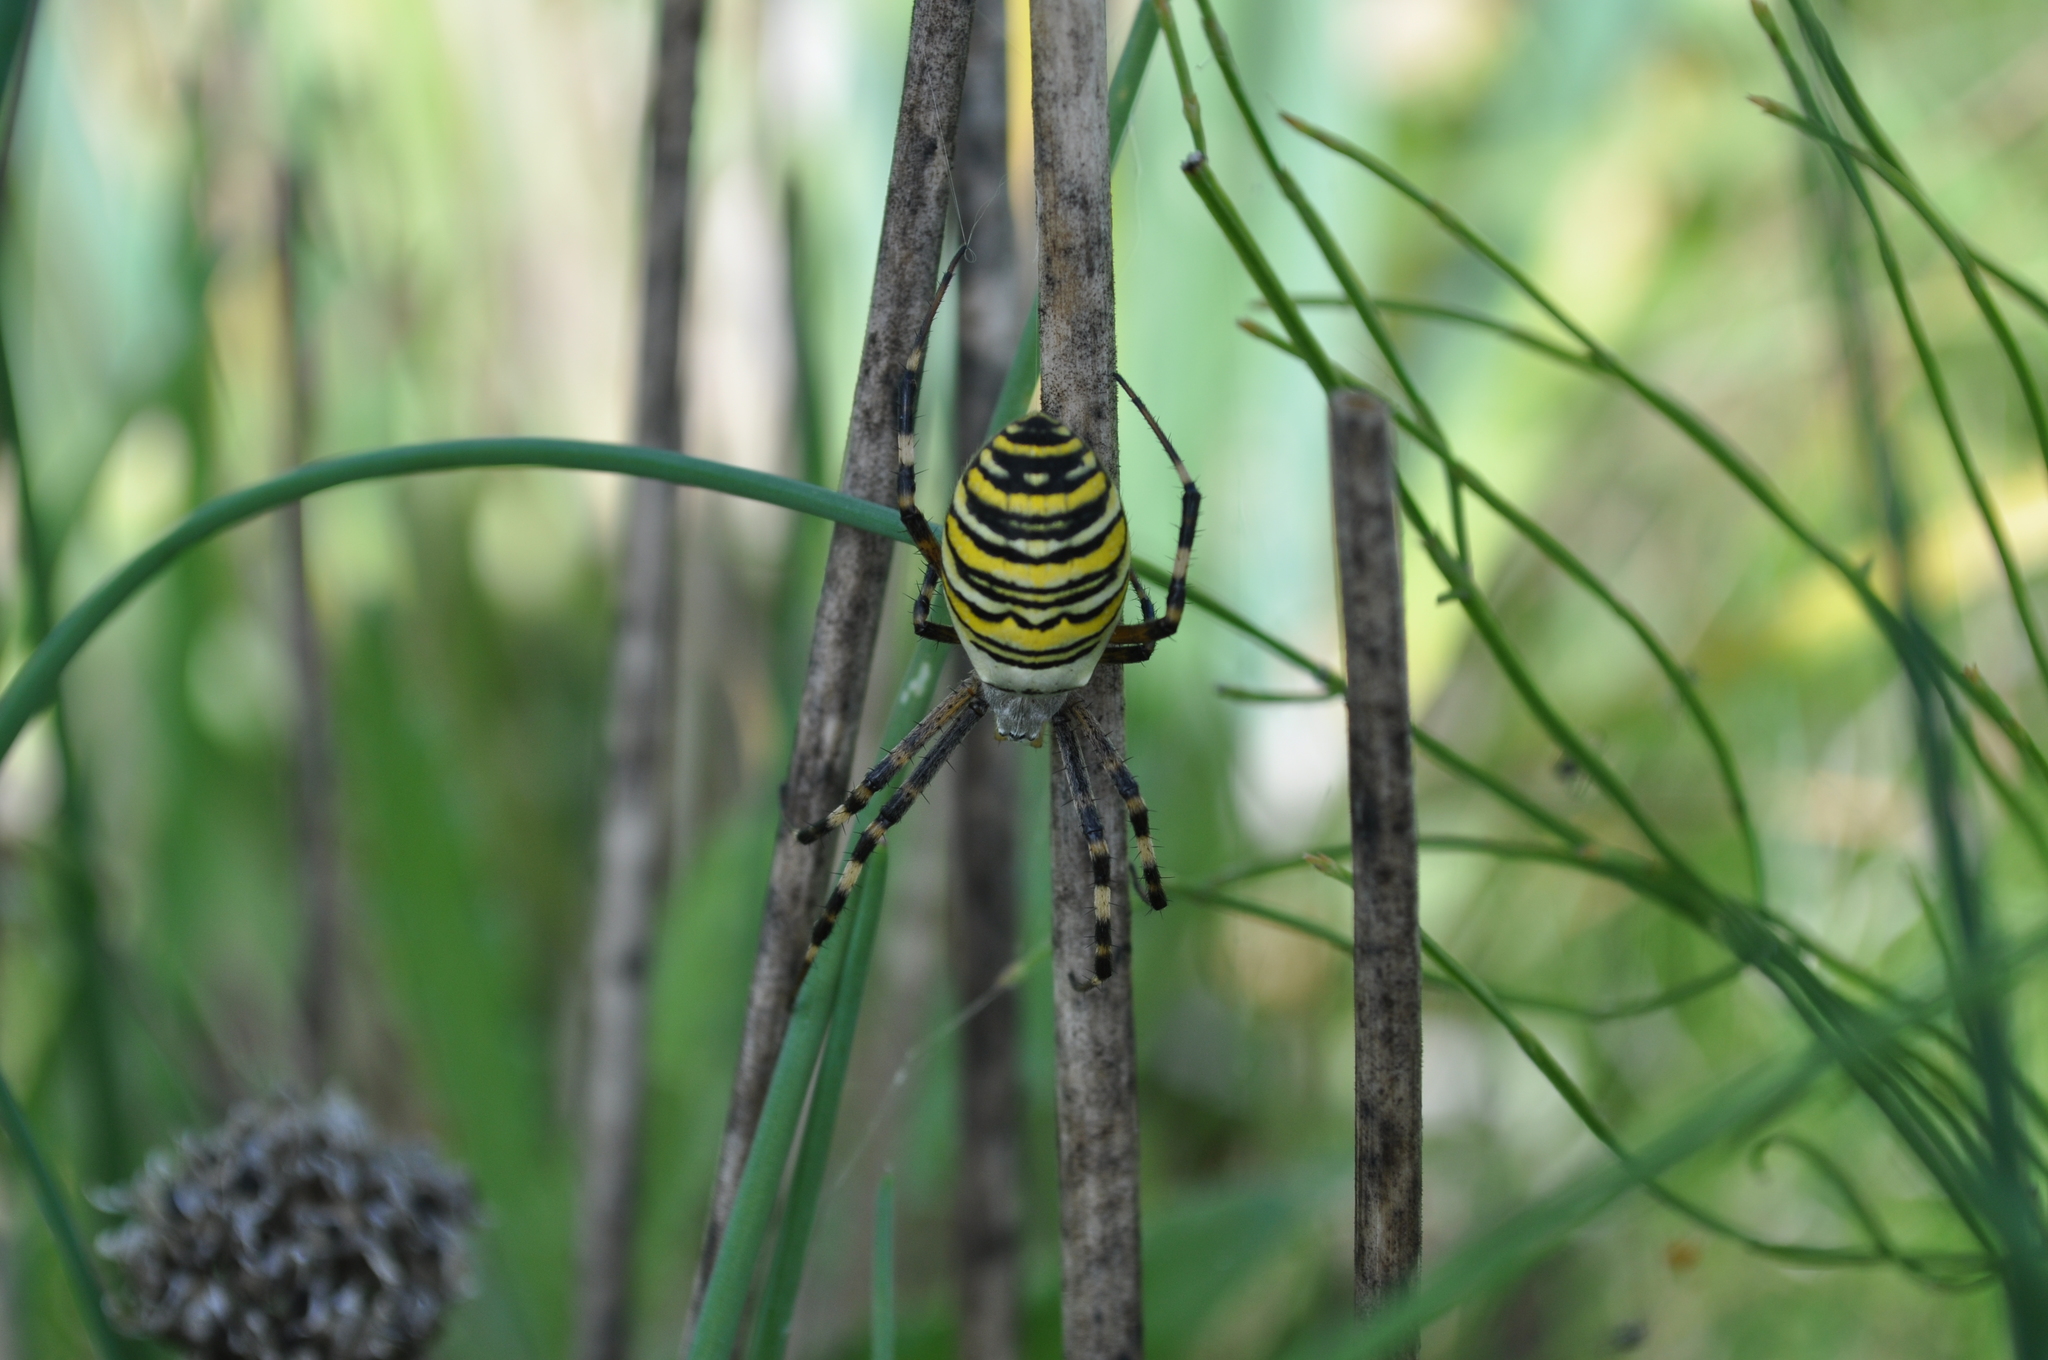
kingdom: Animalia
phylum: Arthropoda
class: Arachnida
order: Araneae
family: Araneidae
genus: Argiope
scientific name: Argiope bruennichi
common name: Wasp spider
